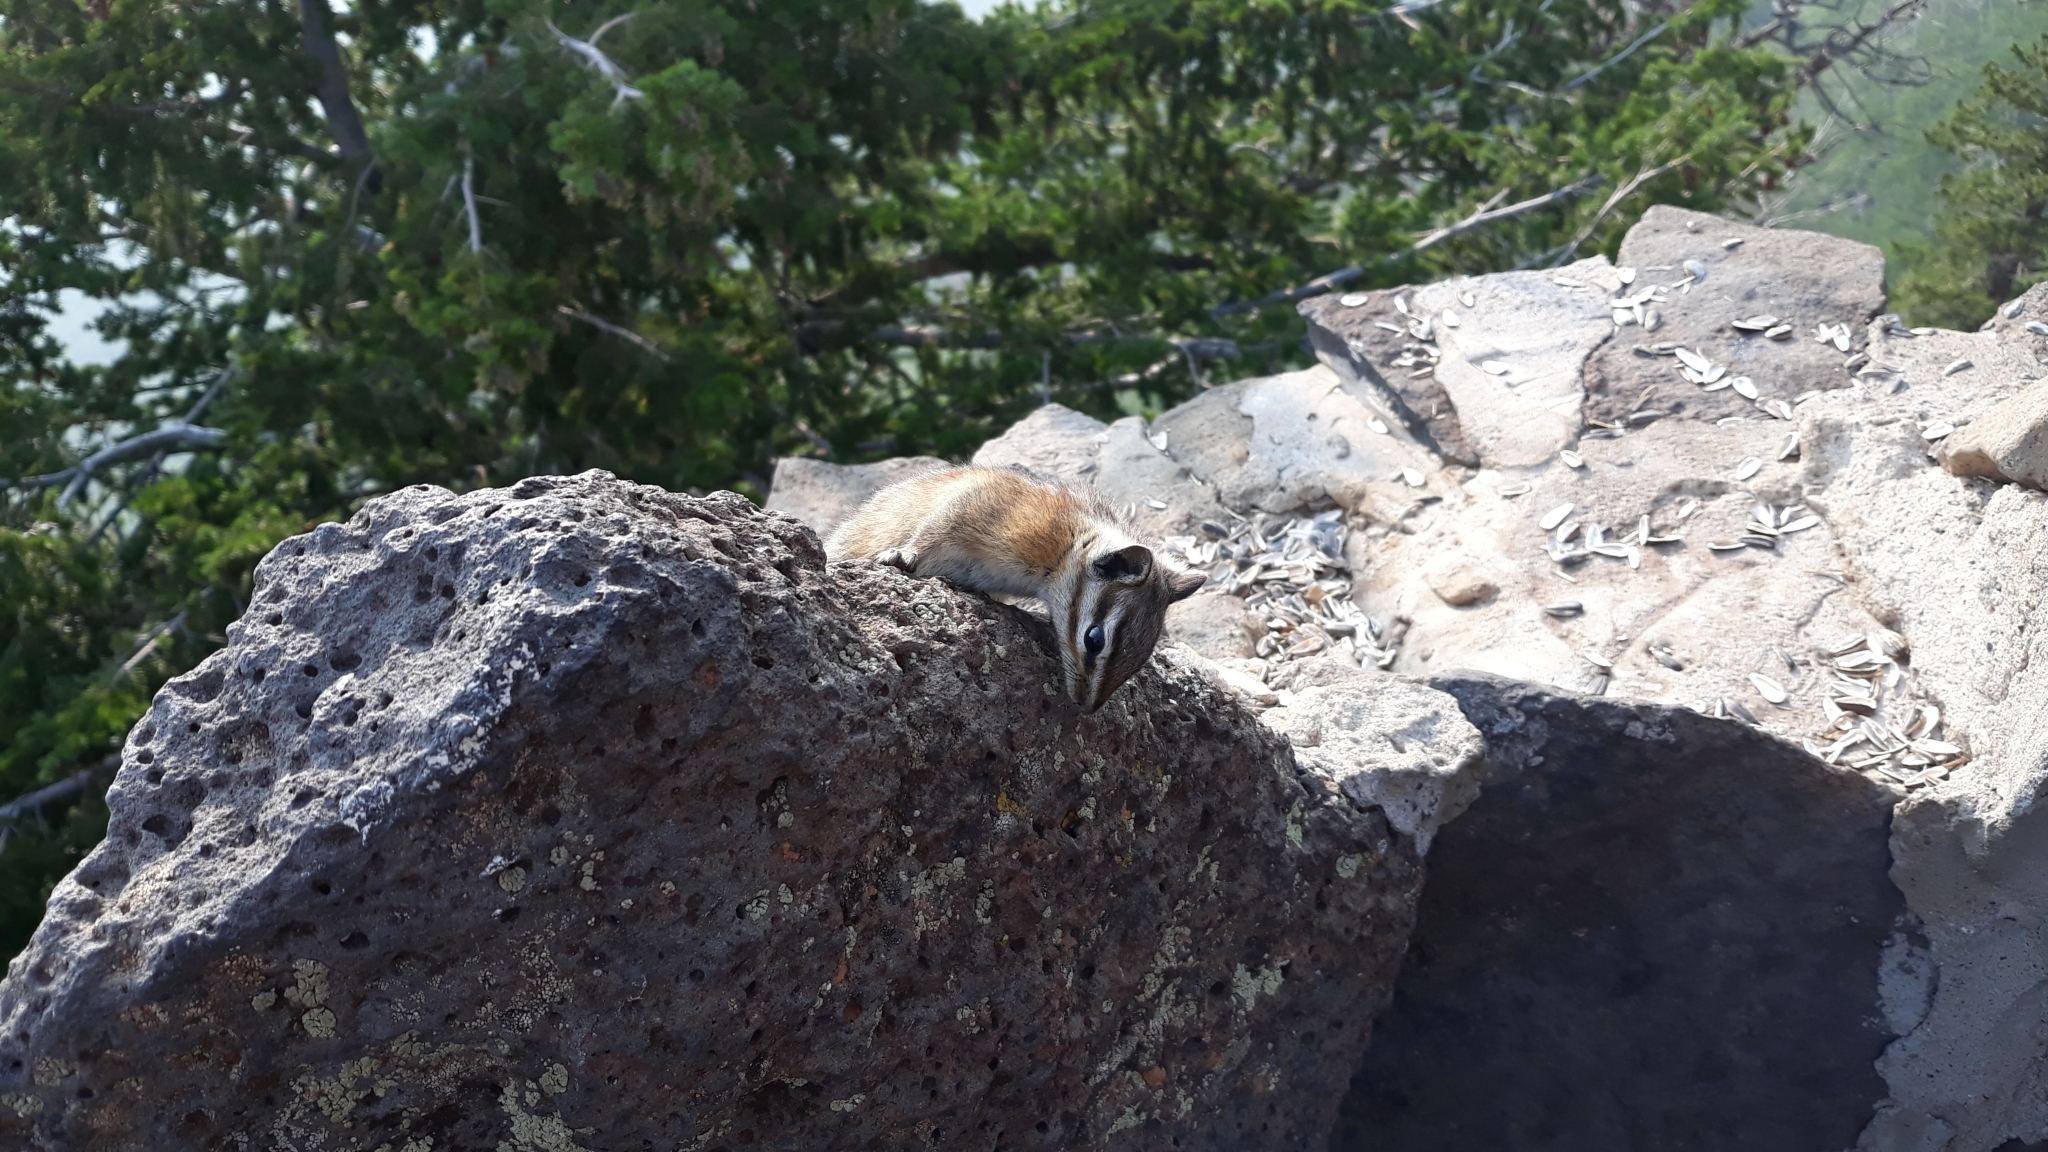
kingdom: Animalia
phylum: Chordata
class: Mammalia
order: Rodentia
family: Sciuridae
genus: Tamias
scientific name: Tamias minimus
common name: Least chipmunk
